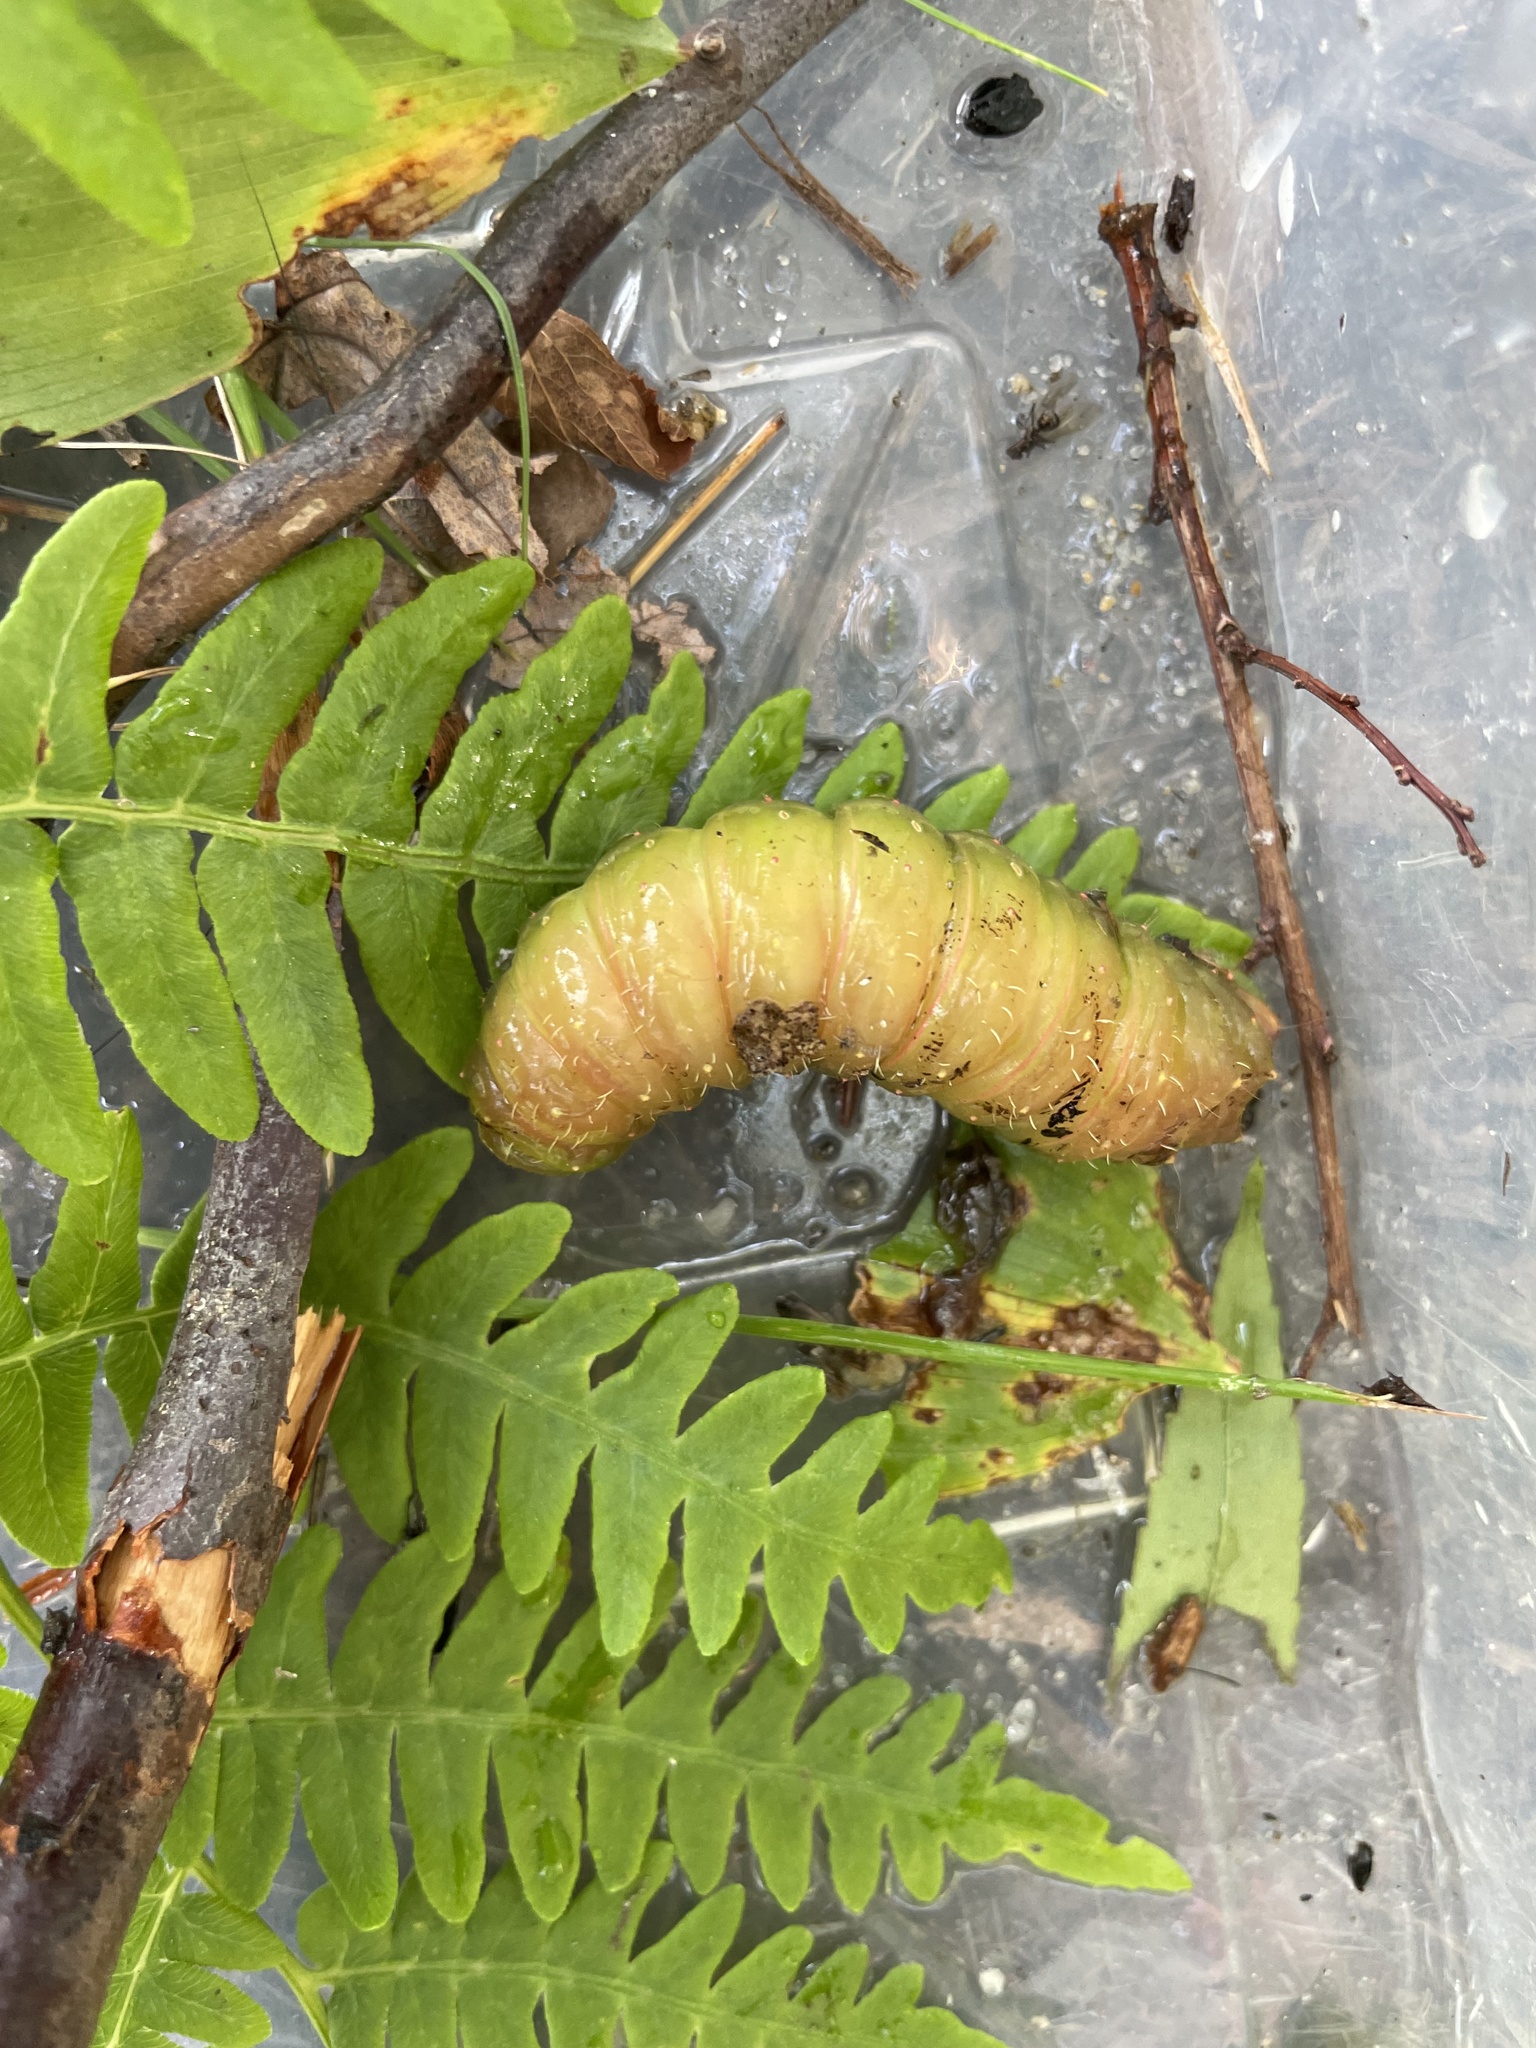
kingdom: Animalia
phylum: Arthropoda
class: Insecta
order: Lepidoptera
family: Saturniidae
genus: Actias
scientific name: Actias luna
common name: Luna moth
